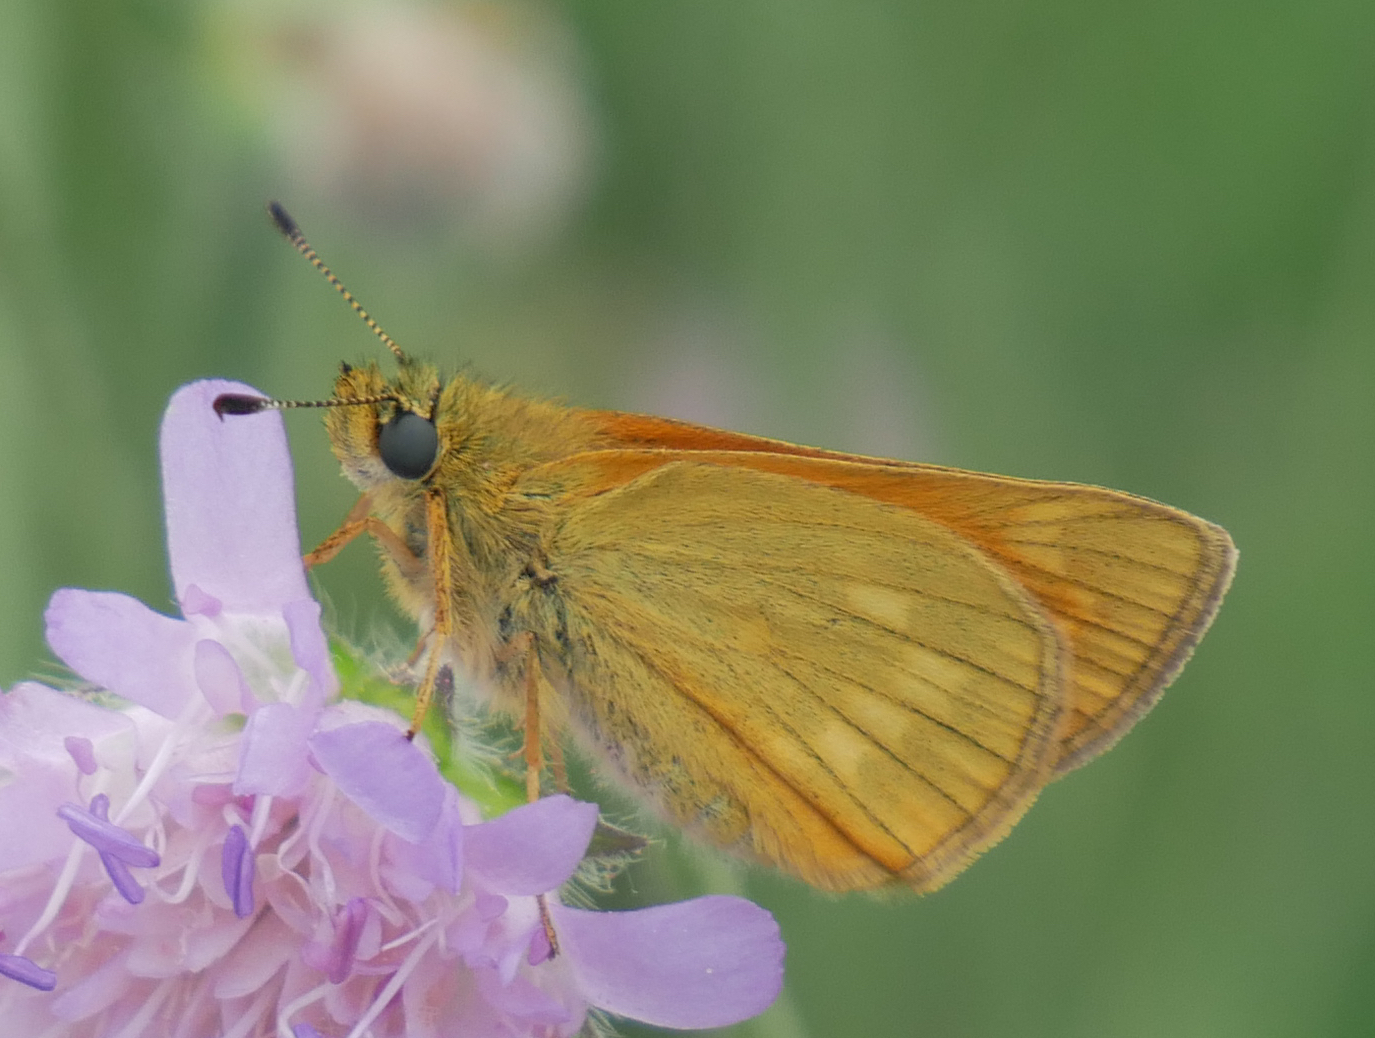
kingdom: Animalia
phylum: Arthropoda
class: Insecta
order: Lepidoptera
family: Hesperiidae
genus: Ochlodes
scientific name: Ochlodes venata
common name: Large skipper
